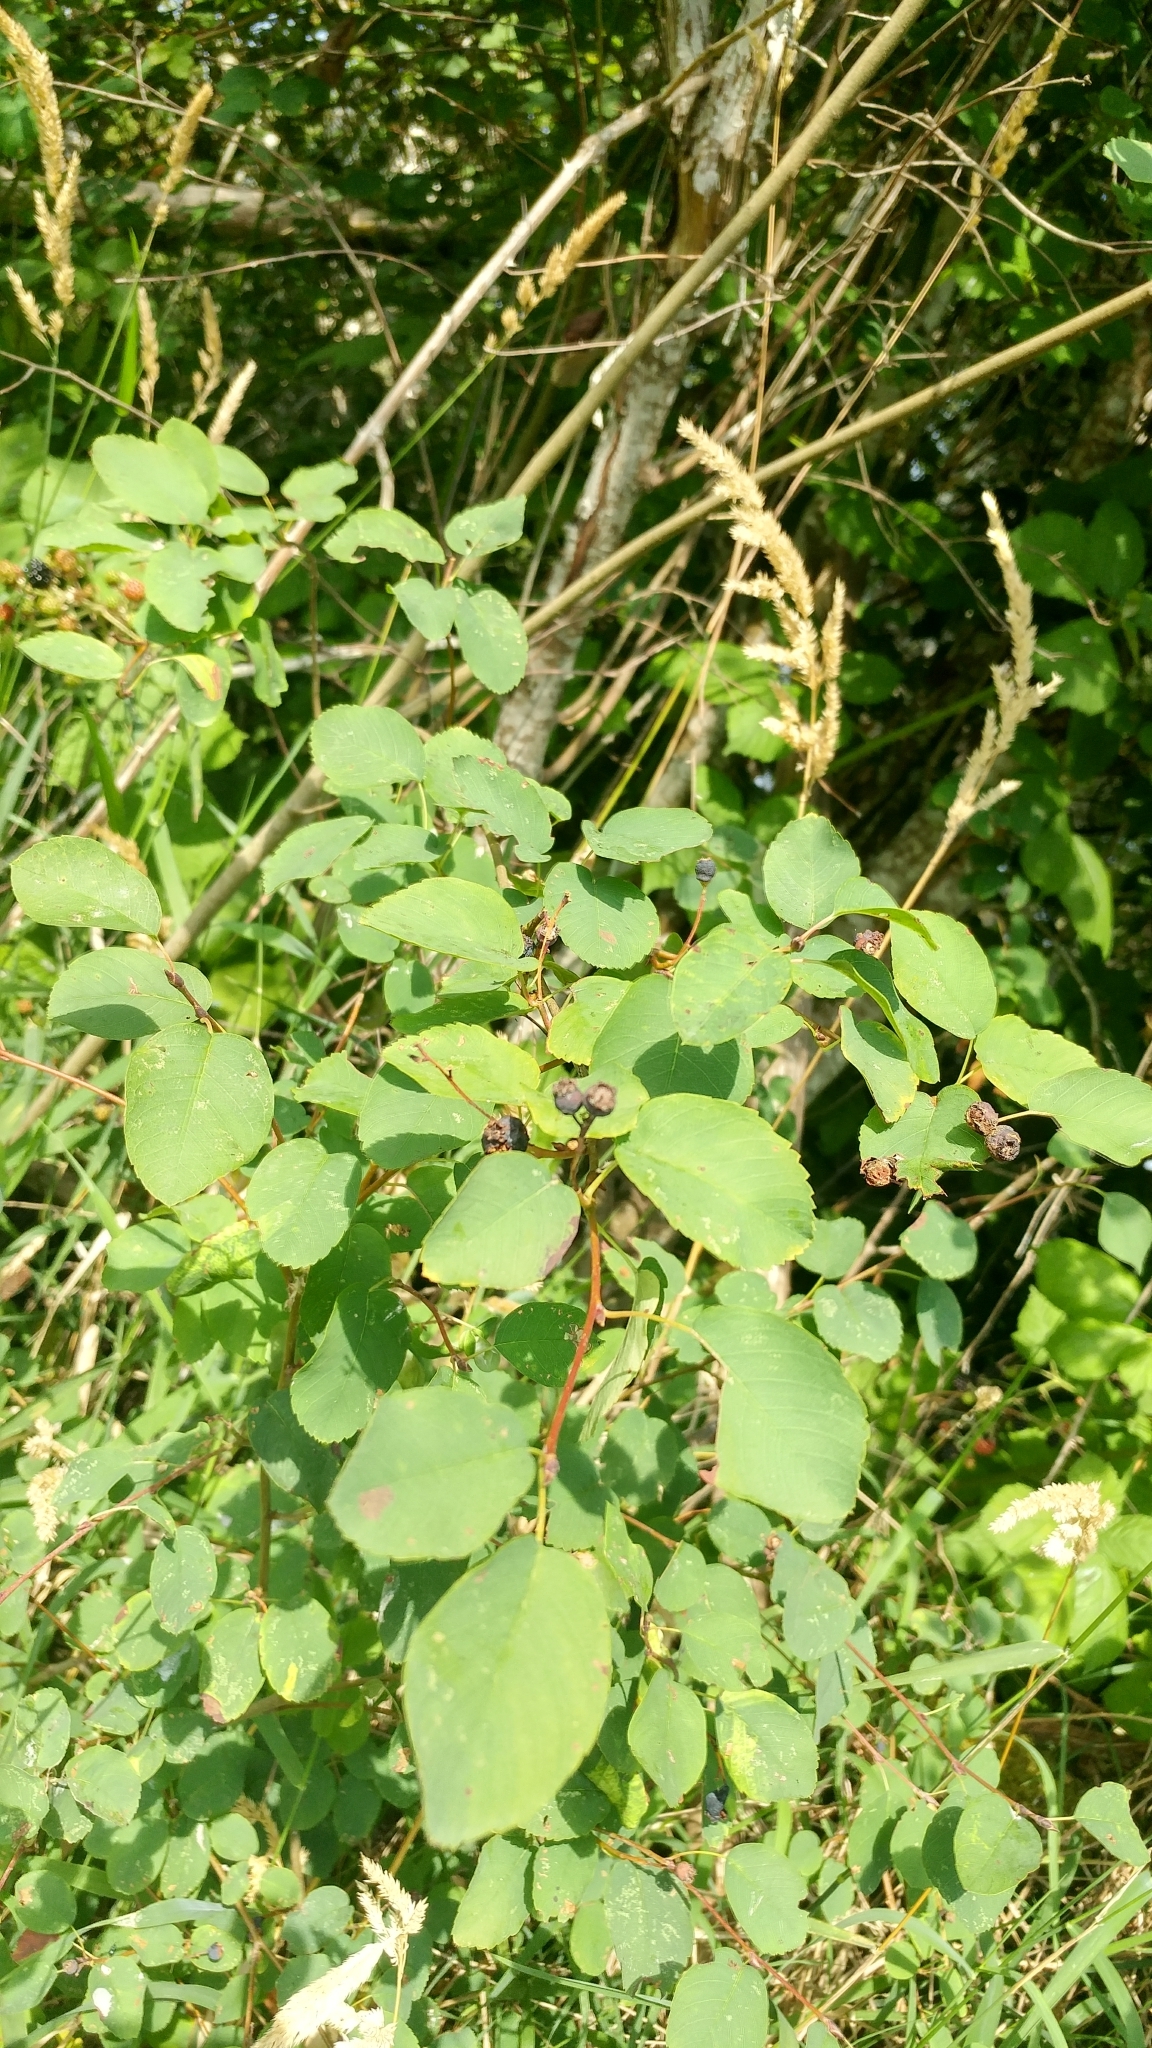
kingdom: Plantae
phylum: Tracheophyta
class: Magnoliopsida
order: Rosales
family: Rosaceae
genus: Amelanchier
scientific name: Amelanchier alnifolia
